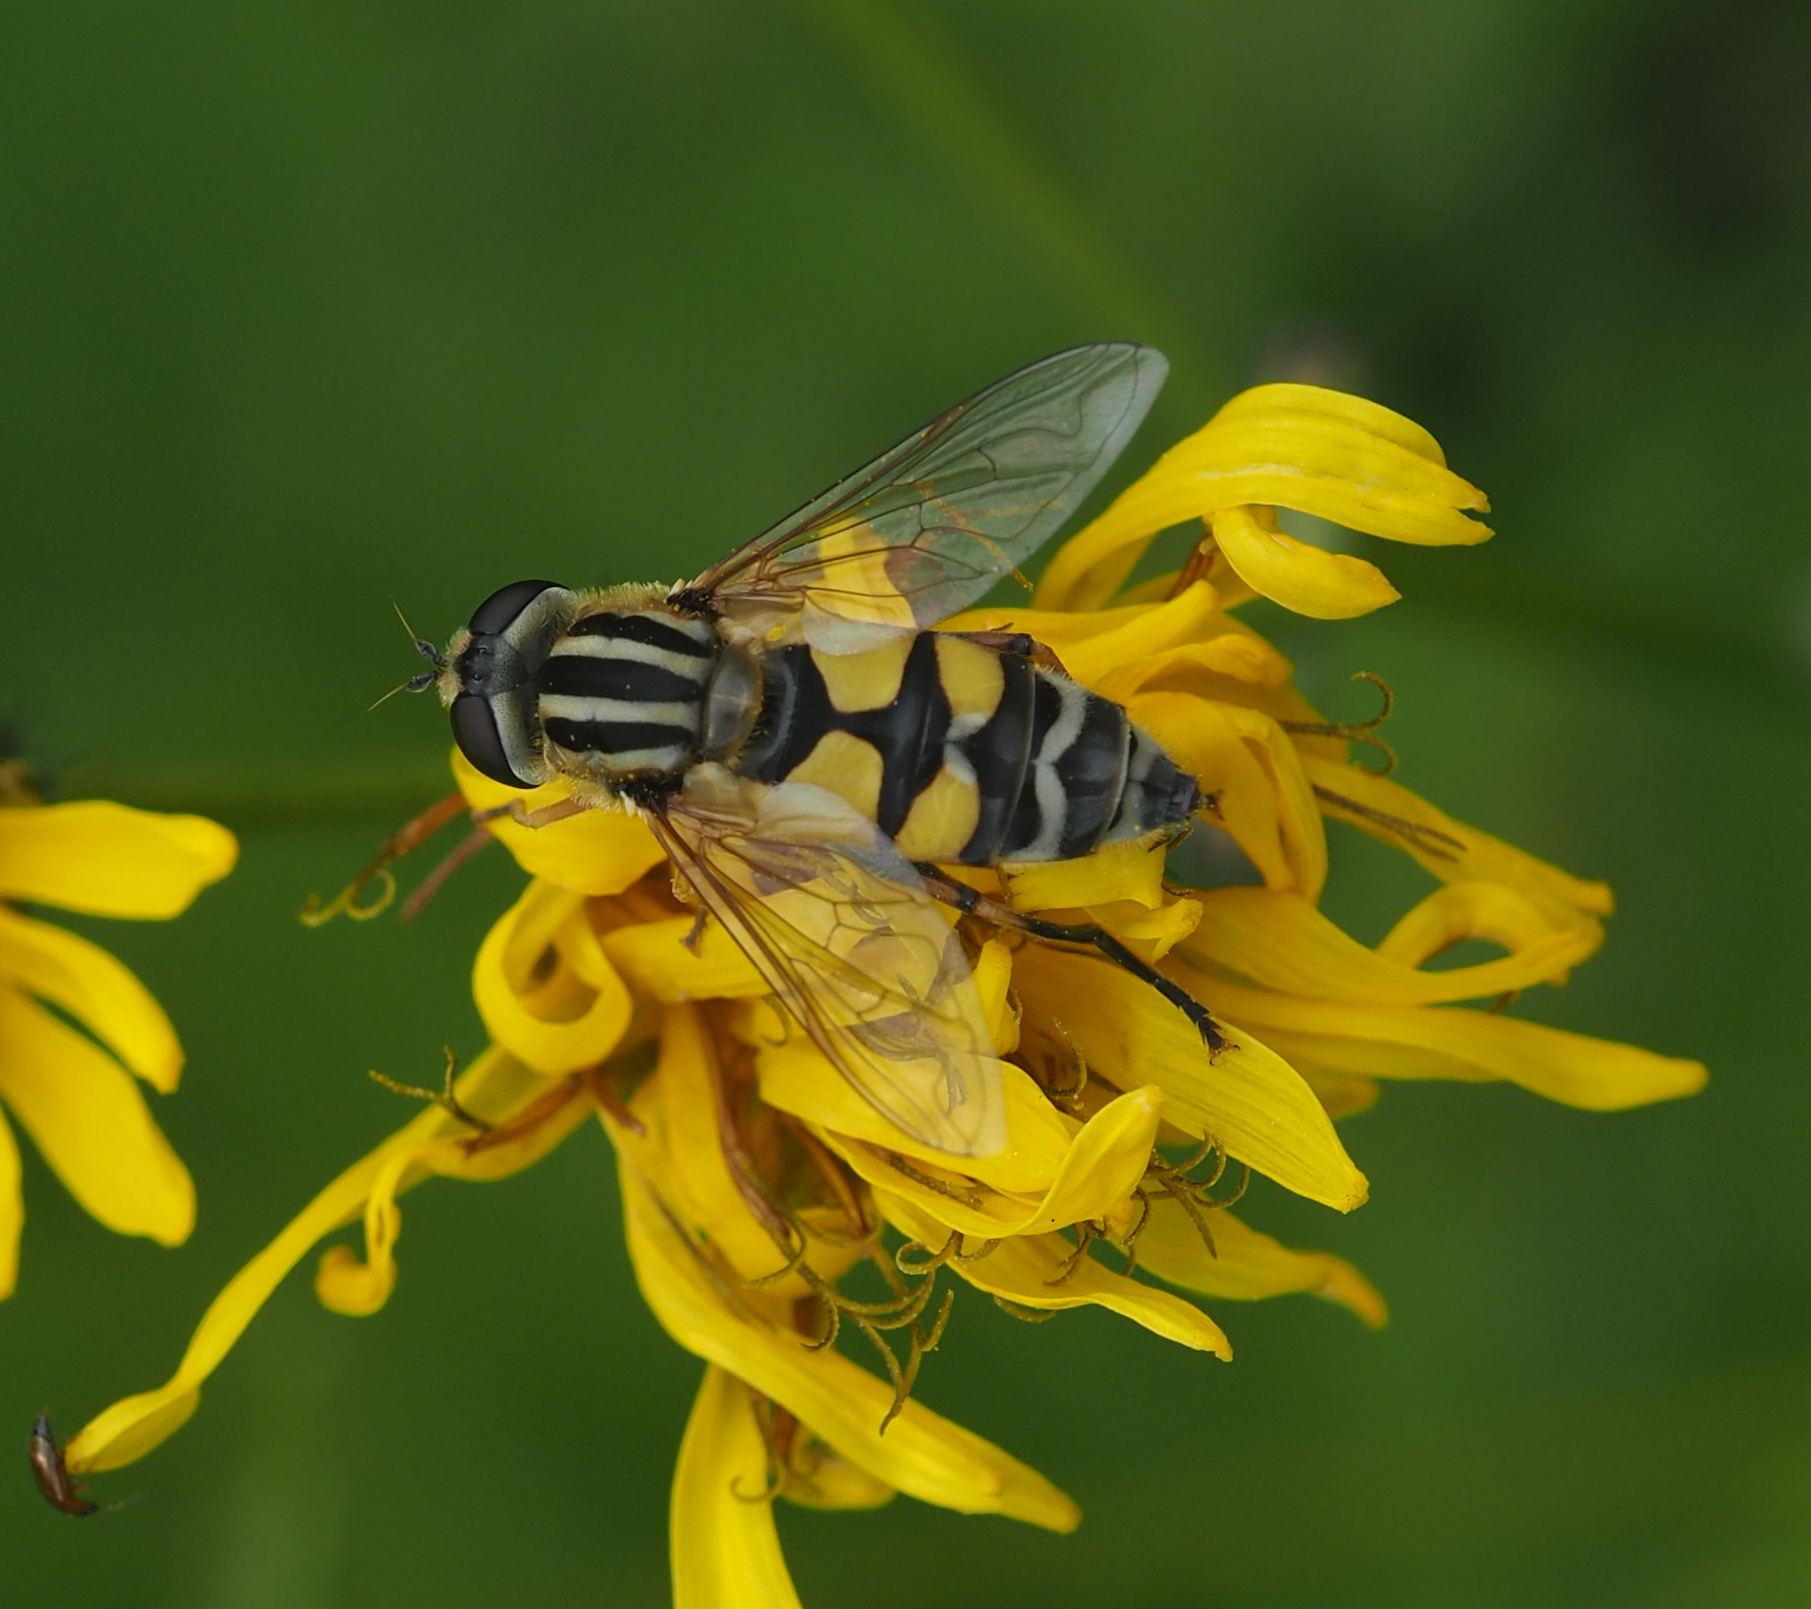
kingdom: Animalia
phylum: Arthropoda
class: Insecta
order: Diptera
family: Syrphidae
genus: Helophilus
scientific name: Helophilus trivittatus
